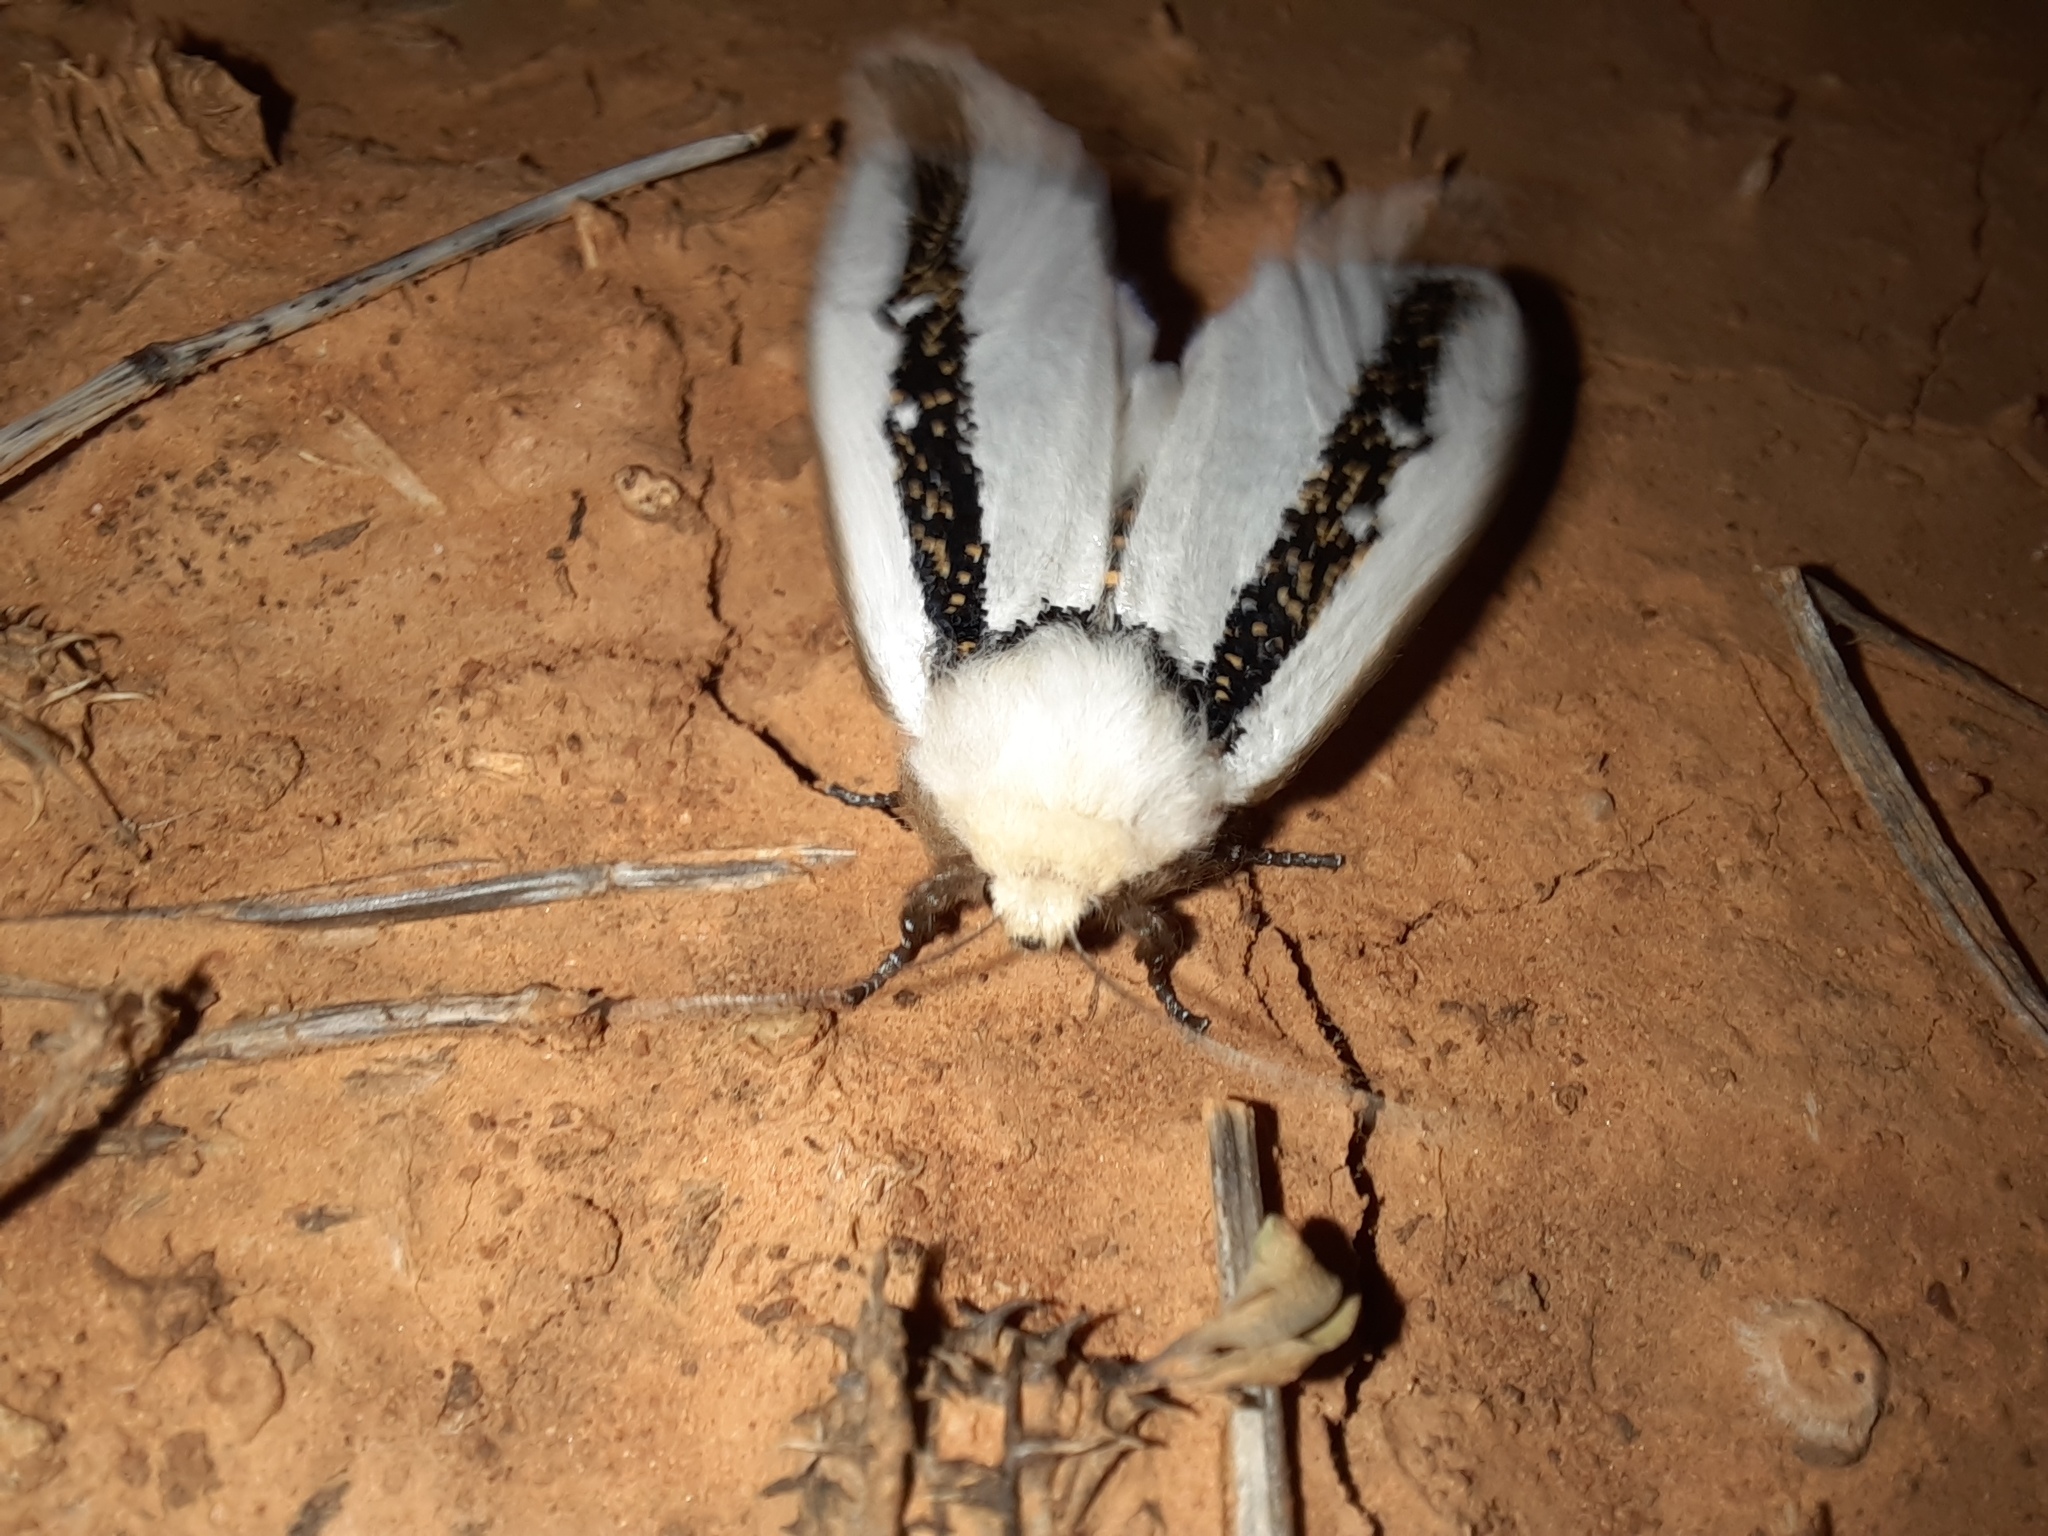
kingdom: Animalia
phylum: Arthropoda
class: Insecta
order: Lepidoptera
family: Oenosandridae
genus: Oenosandra
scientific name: Oenosandra boisduvalii
